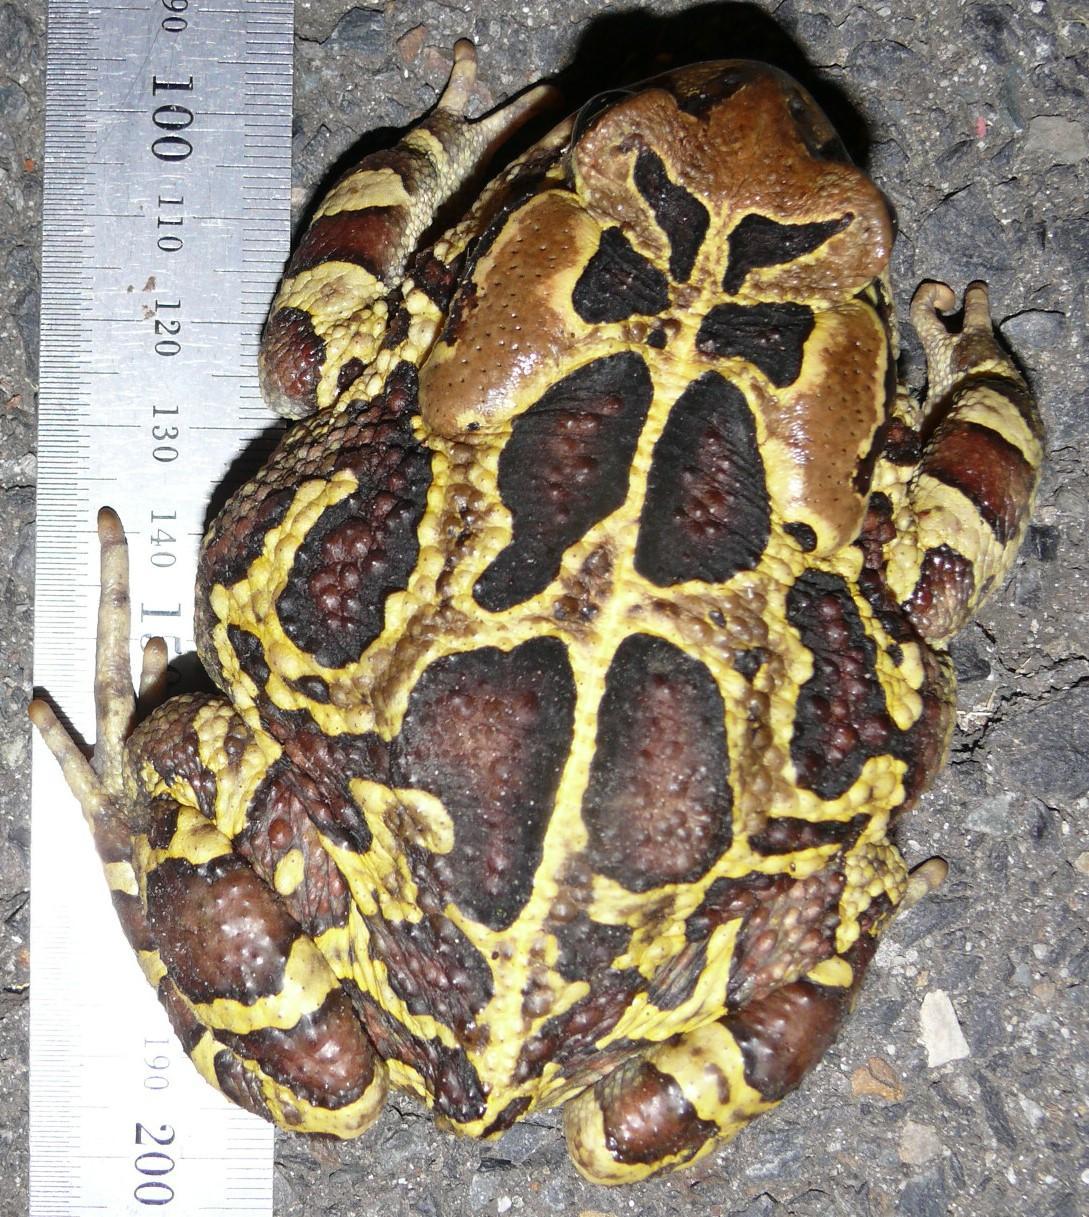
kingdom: Animalia
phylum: Chordata
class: Amphibia
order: Anura
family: Bufonidae
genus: Sclerophrys
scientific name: Sclerophrys pantherina
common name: Panther toad
